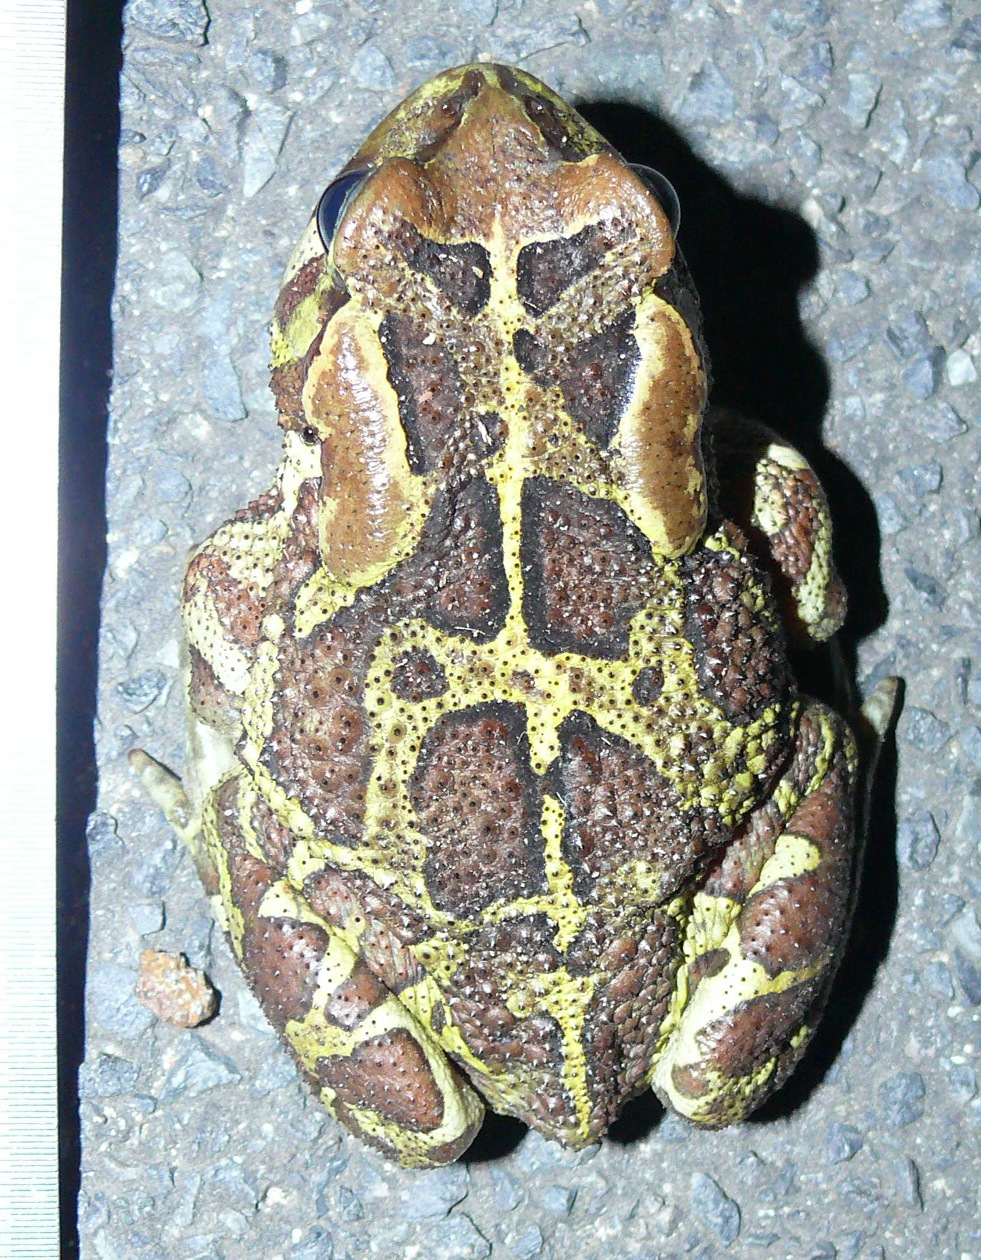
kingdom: Animalia
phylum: Chordata
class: Amphibia
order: Anura
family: Bufonidae
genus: Sclerophrys
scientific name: Sclerophrys pantherina
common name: Panther toad
